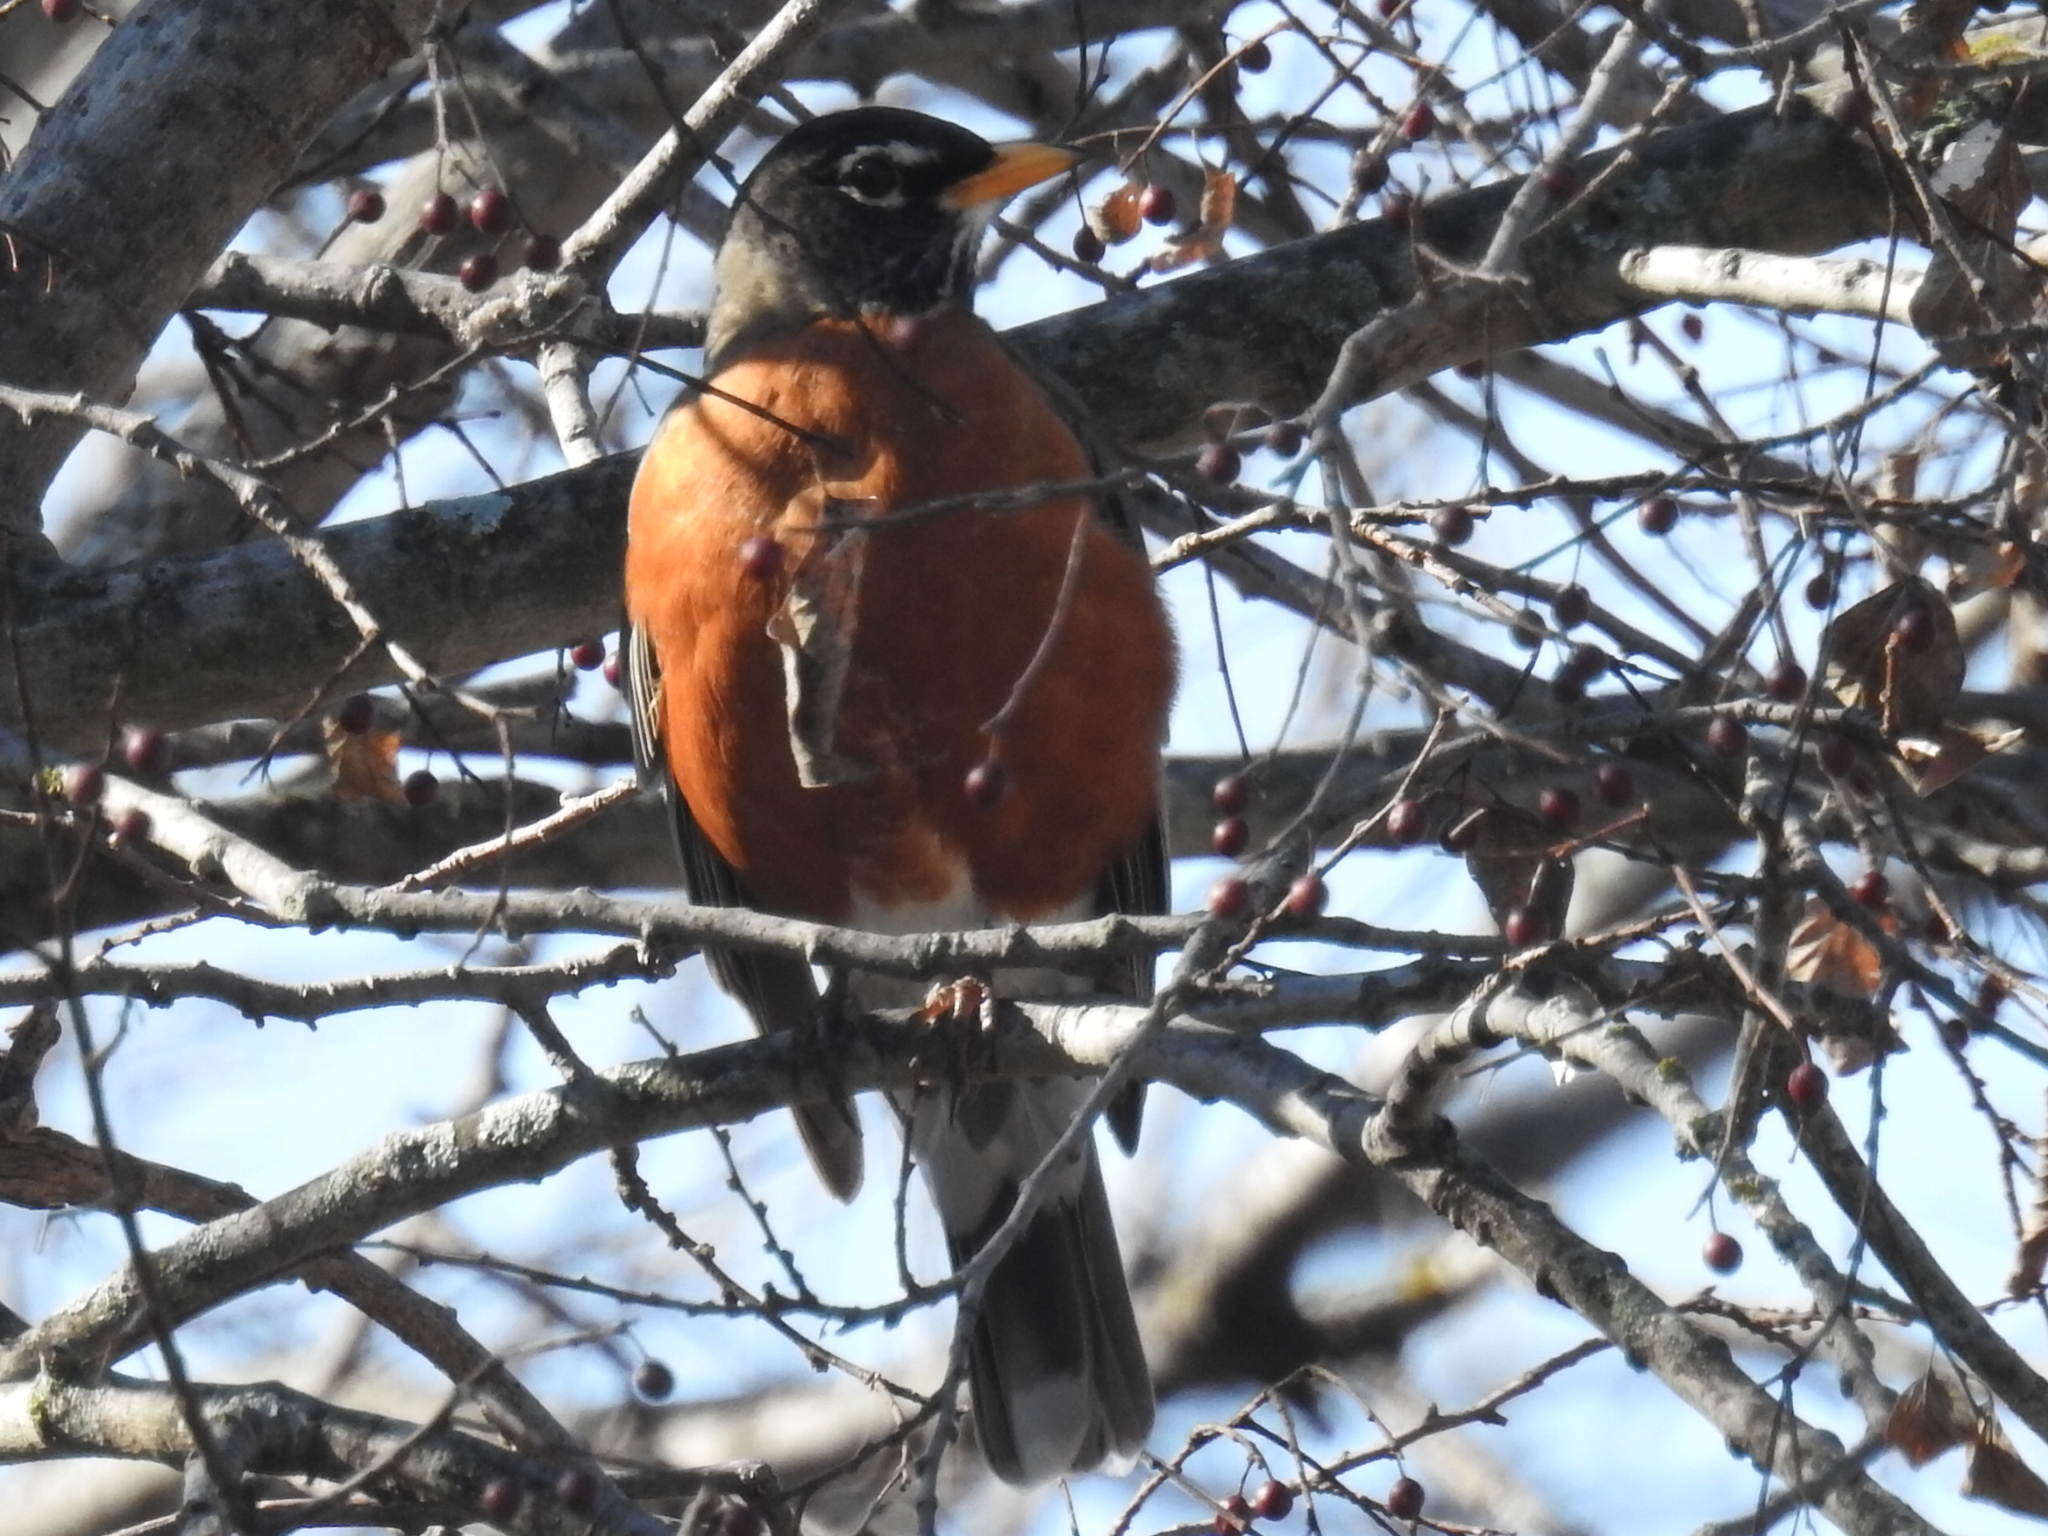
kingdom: Animalia
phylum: Chordata
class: Aves
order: Passeriformes
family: Turdidae
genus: Turdus
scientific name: Turdus migratorius
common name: American robin
